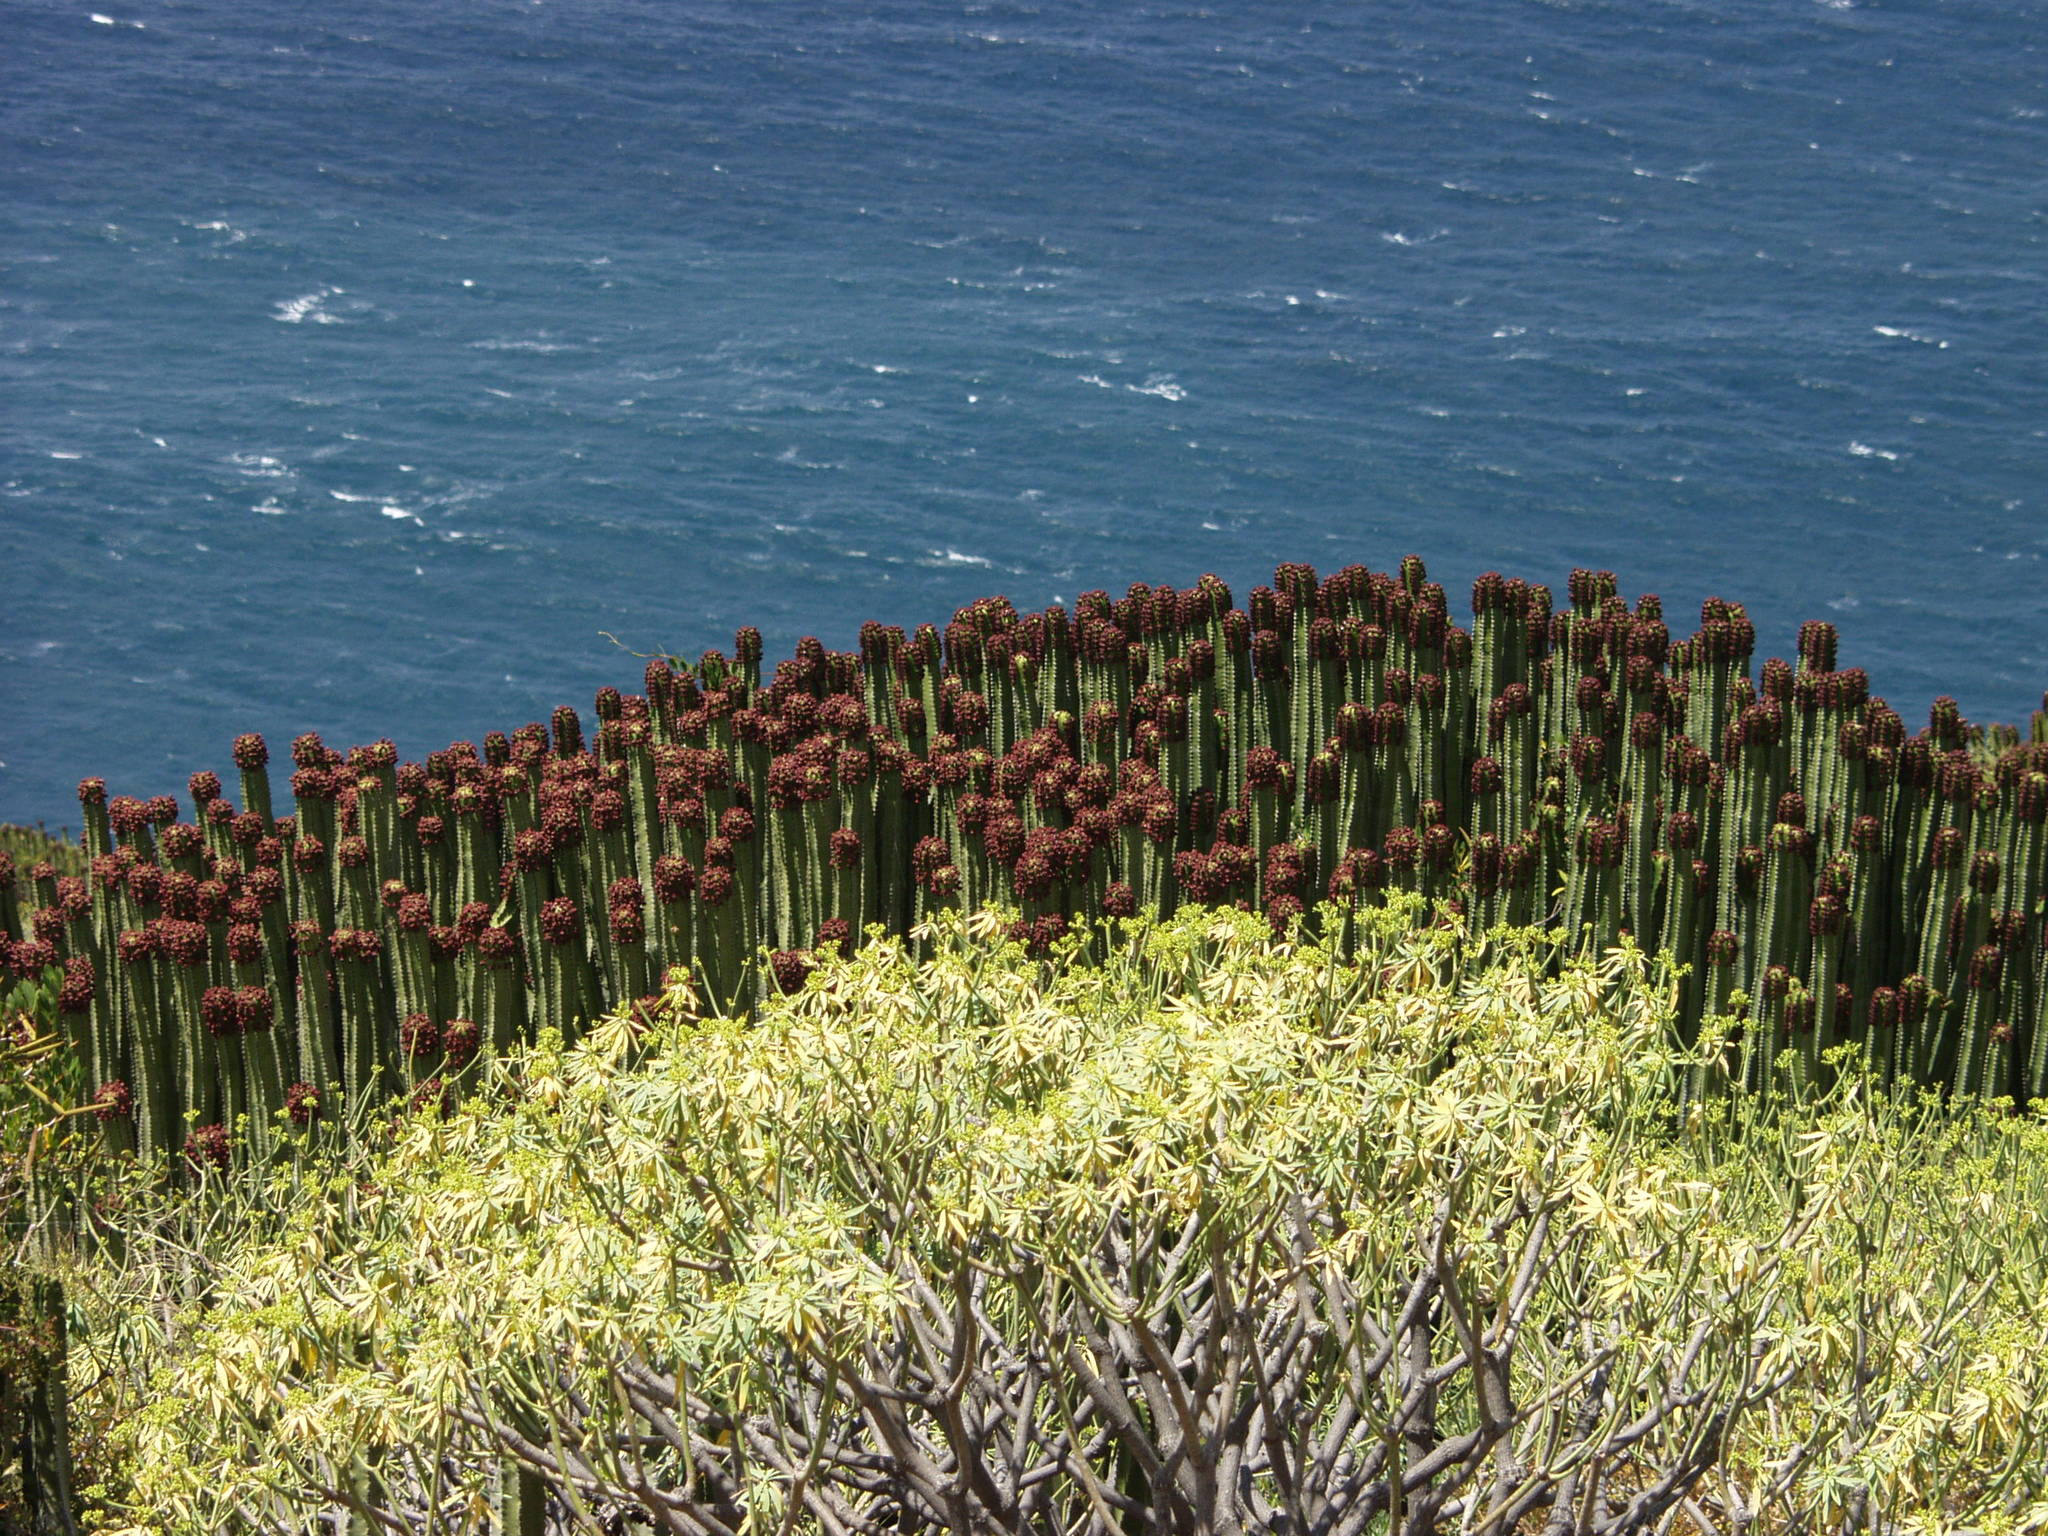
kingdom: Plantae
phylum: Tracheophyta
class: Magnoliopsida
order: Malpighiales
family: Euphorbiaceae
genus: Euphorbia
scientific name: Euphorbia canariensis
